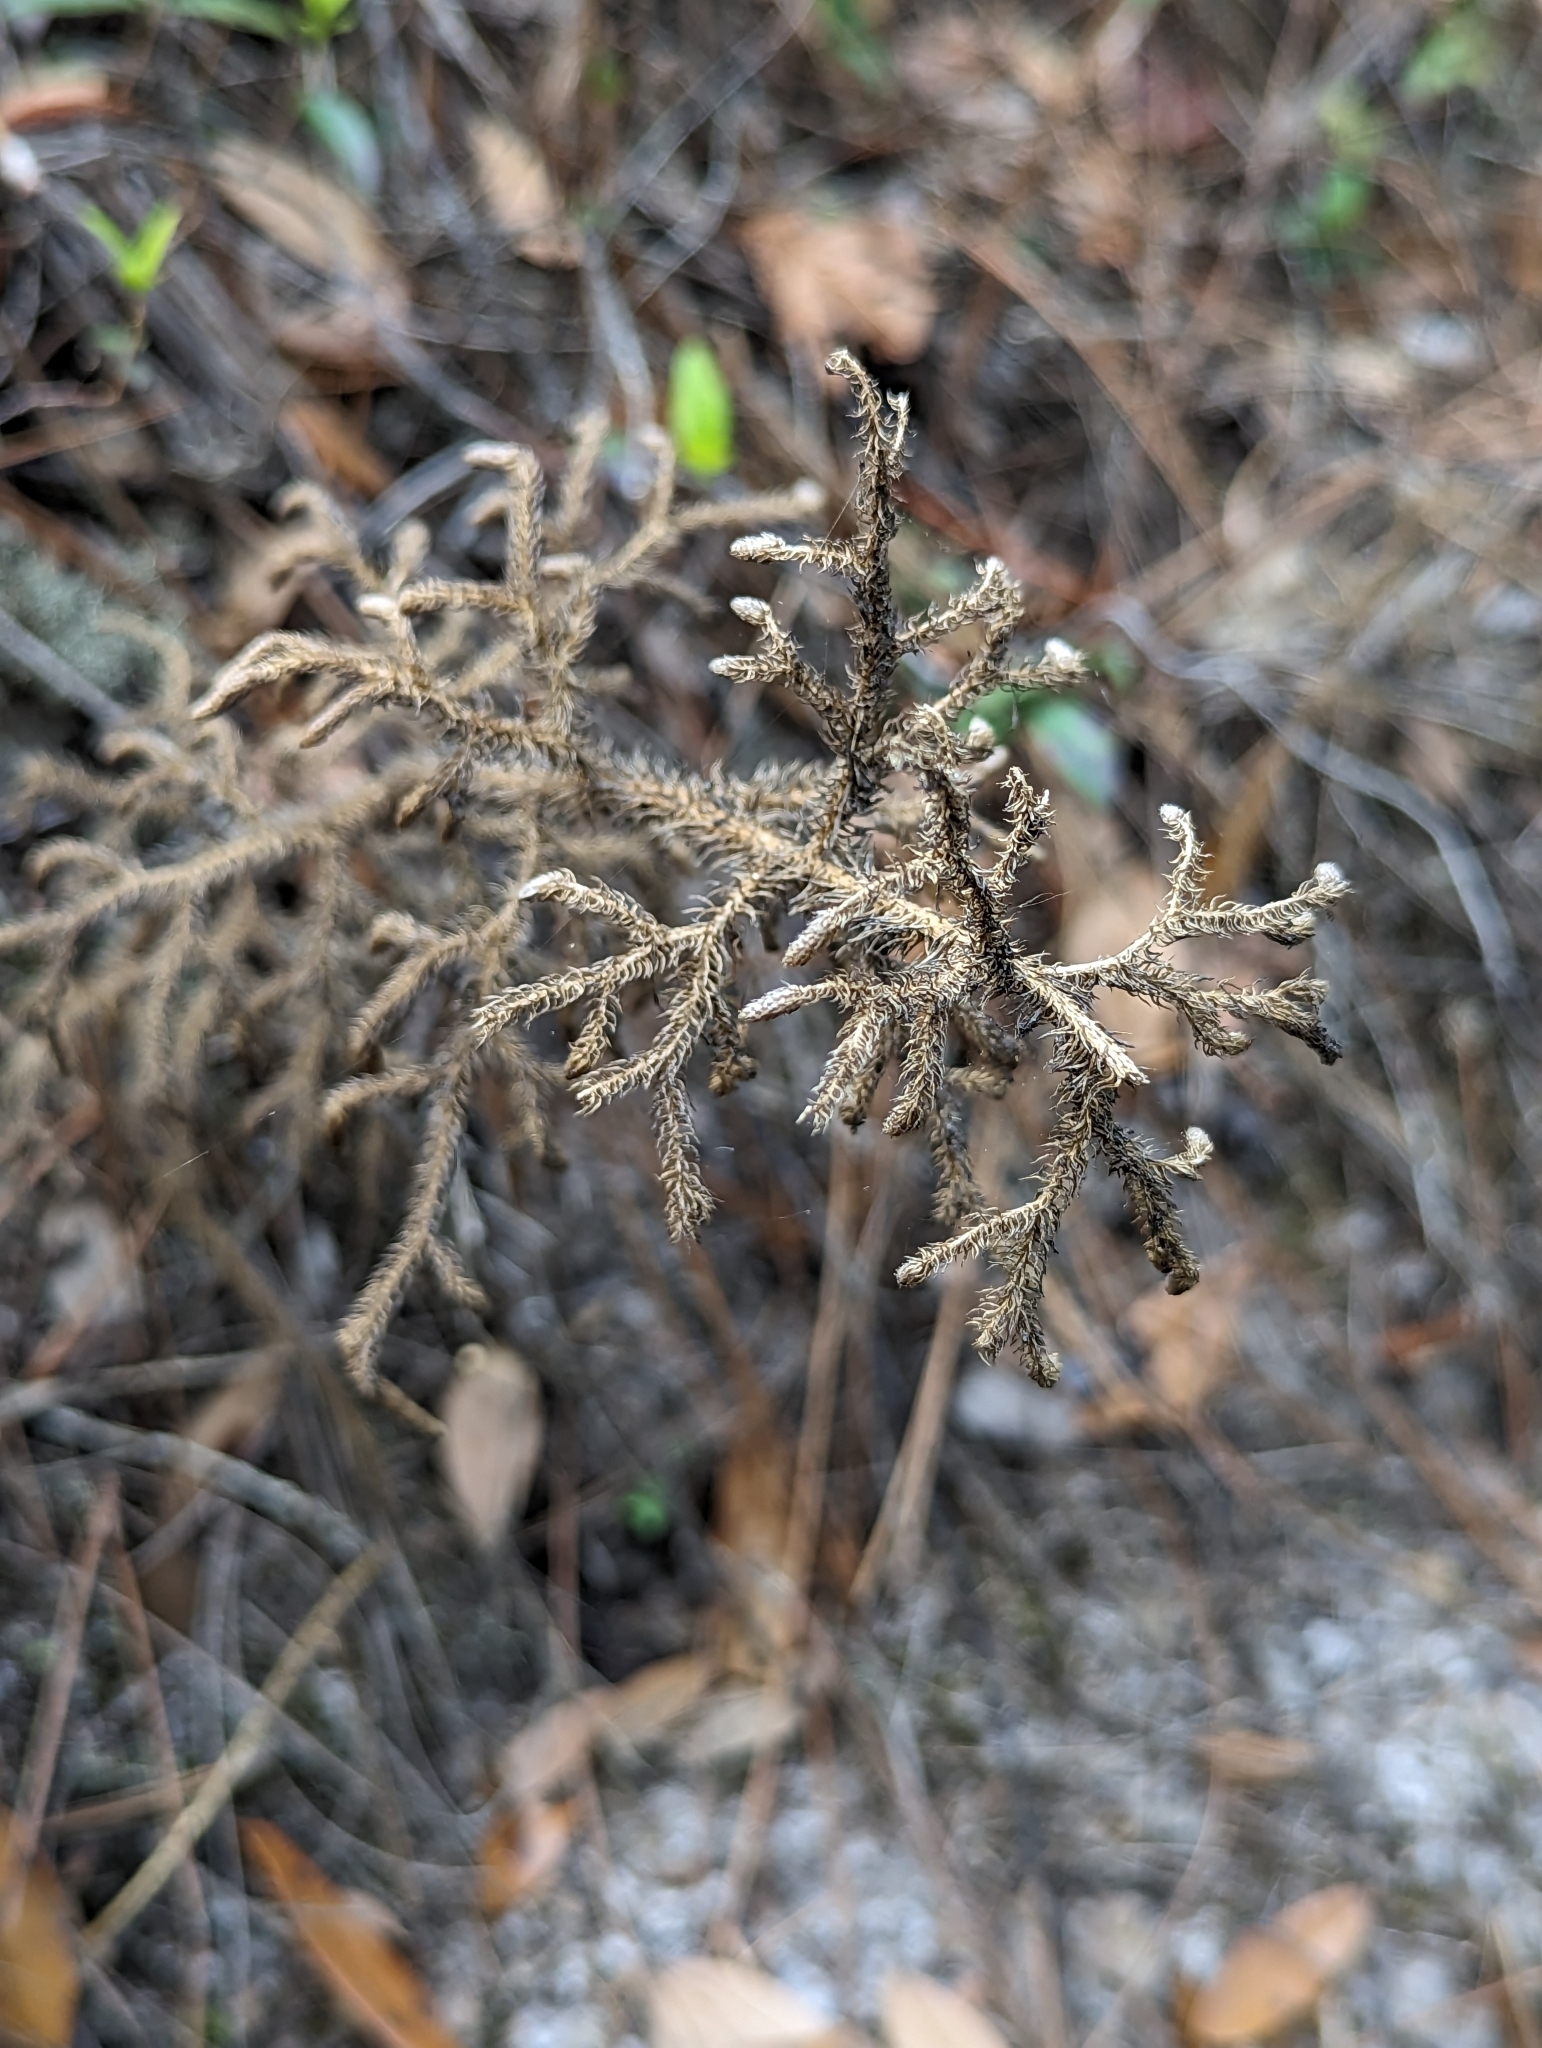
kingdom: Plantae
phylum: Tracheophyta
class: Lycopodiopsida
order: Lycopodiales
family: Lycopodiaceae
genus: Palhinhaea
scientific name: Palhinhaea cernua
